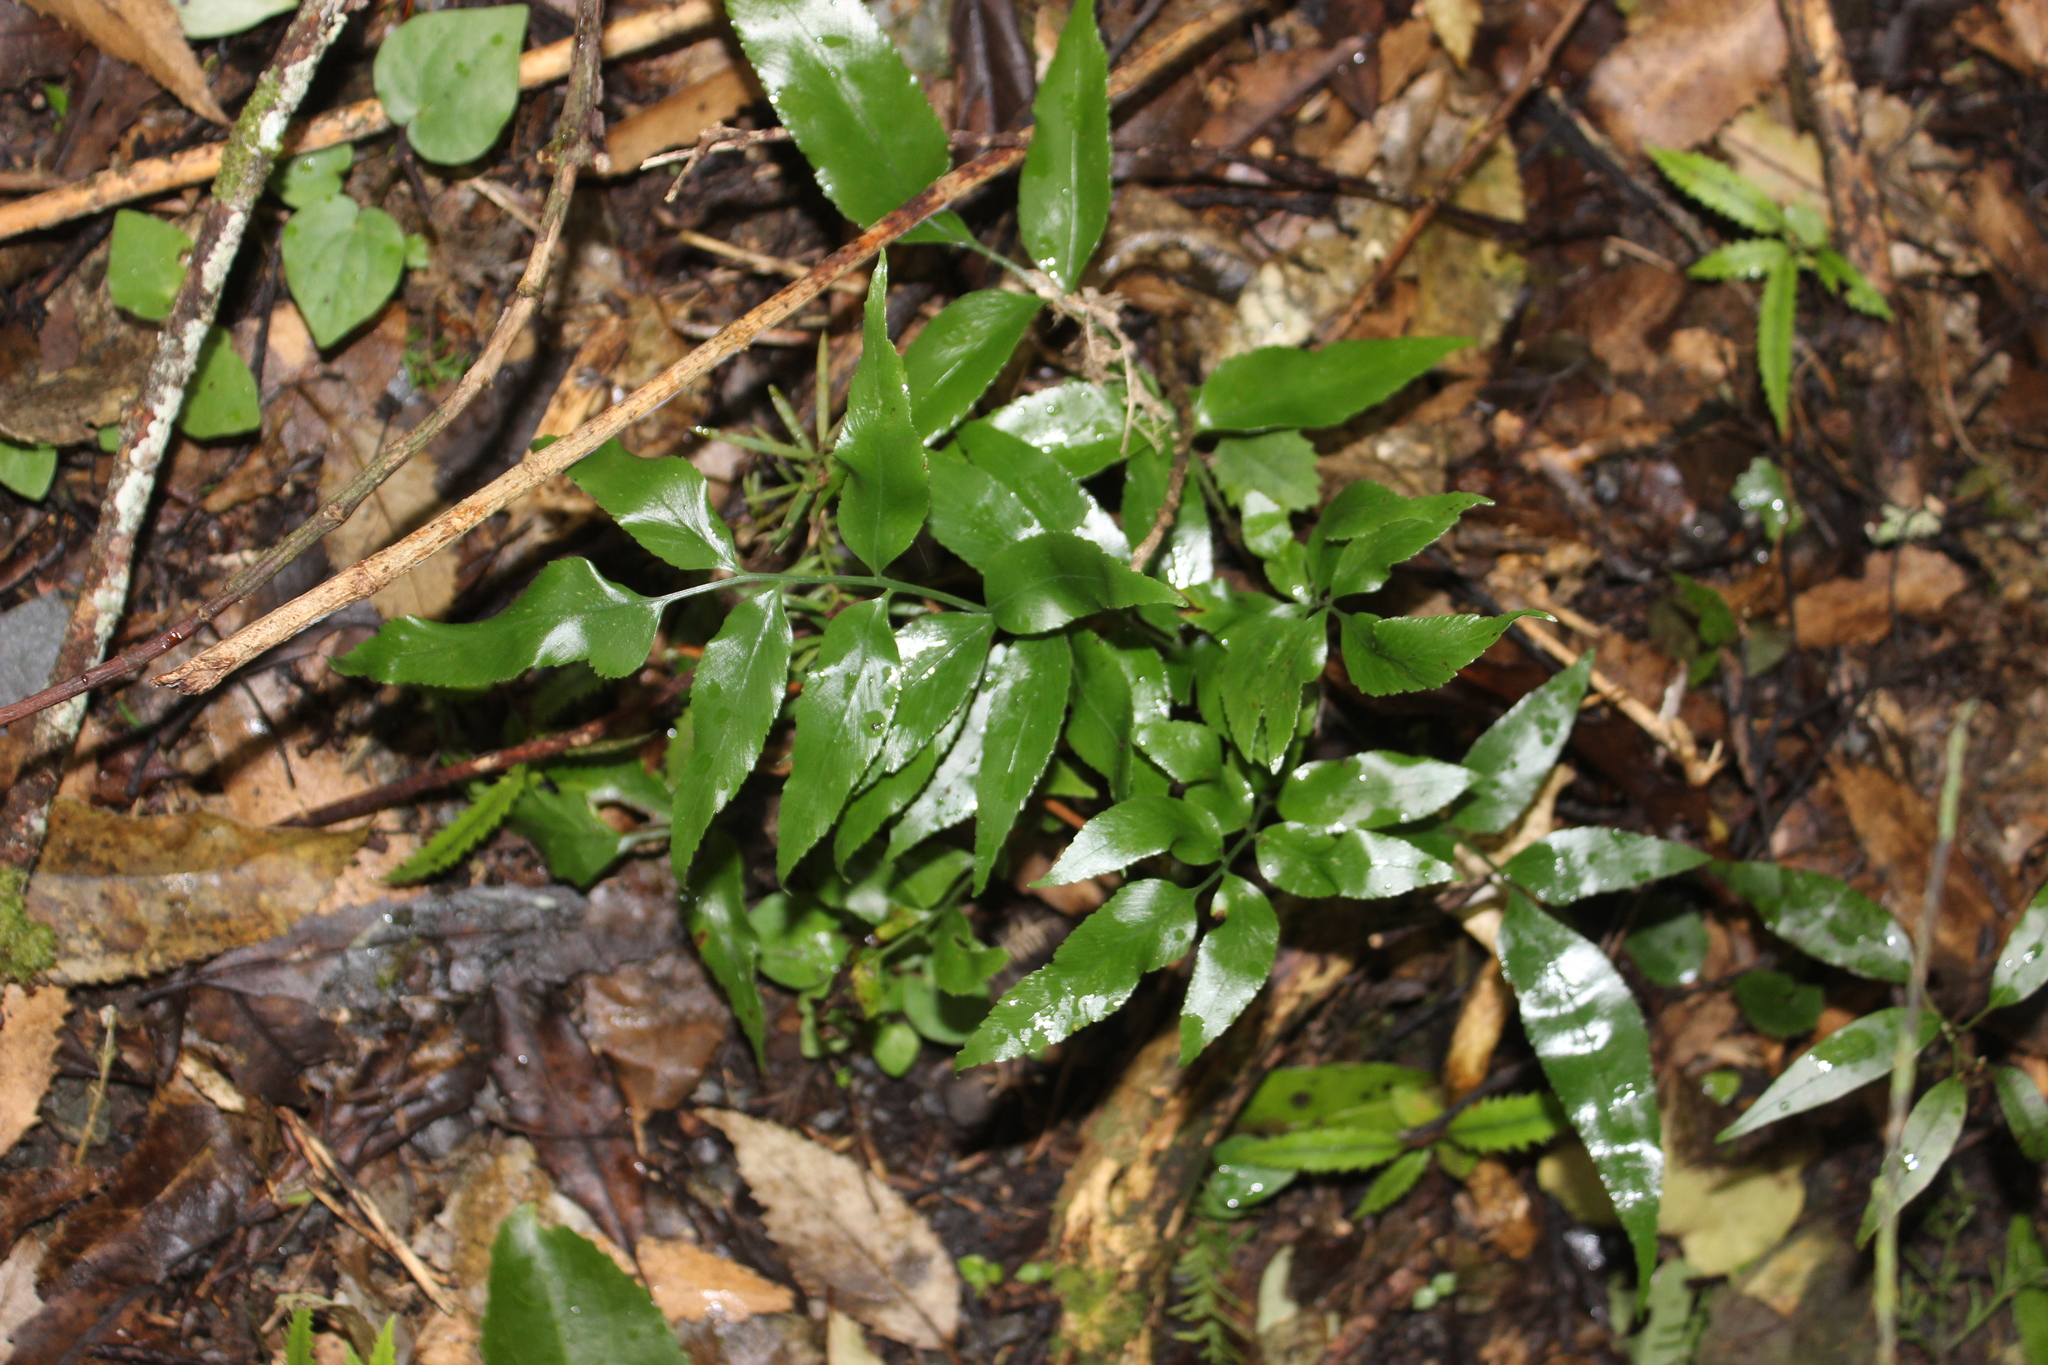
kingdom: Plantae
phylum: Tracheophyta
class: Polypodiopsida
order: Polypodiales
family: Aspleniaceae
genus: Asplenium
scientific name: Asplenium oblongifolium
